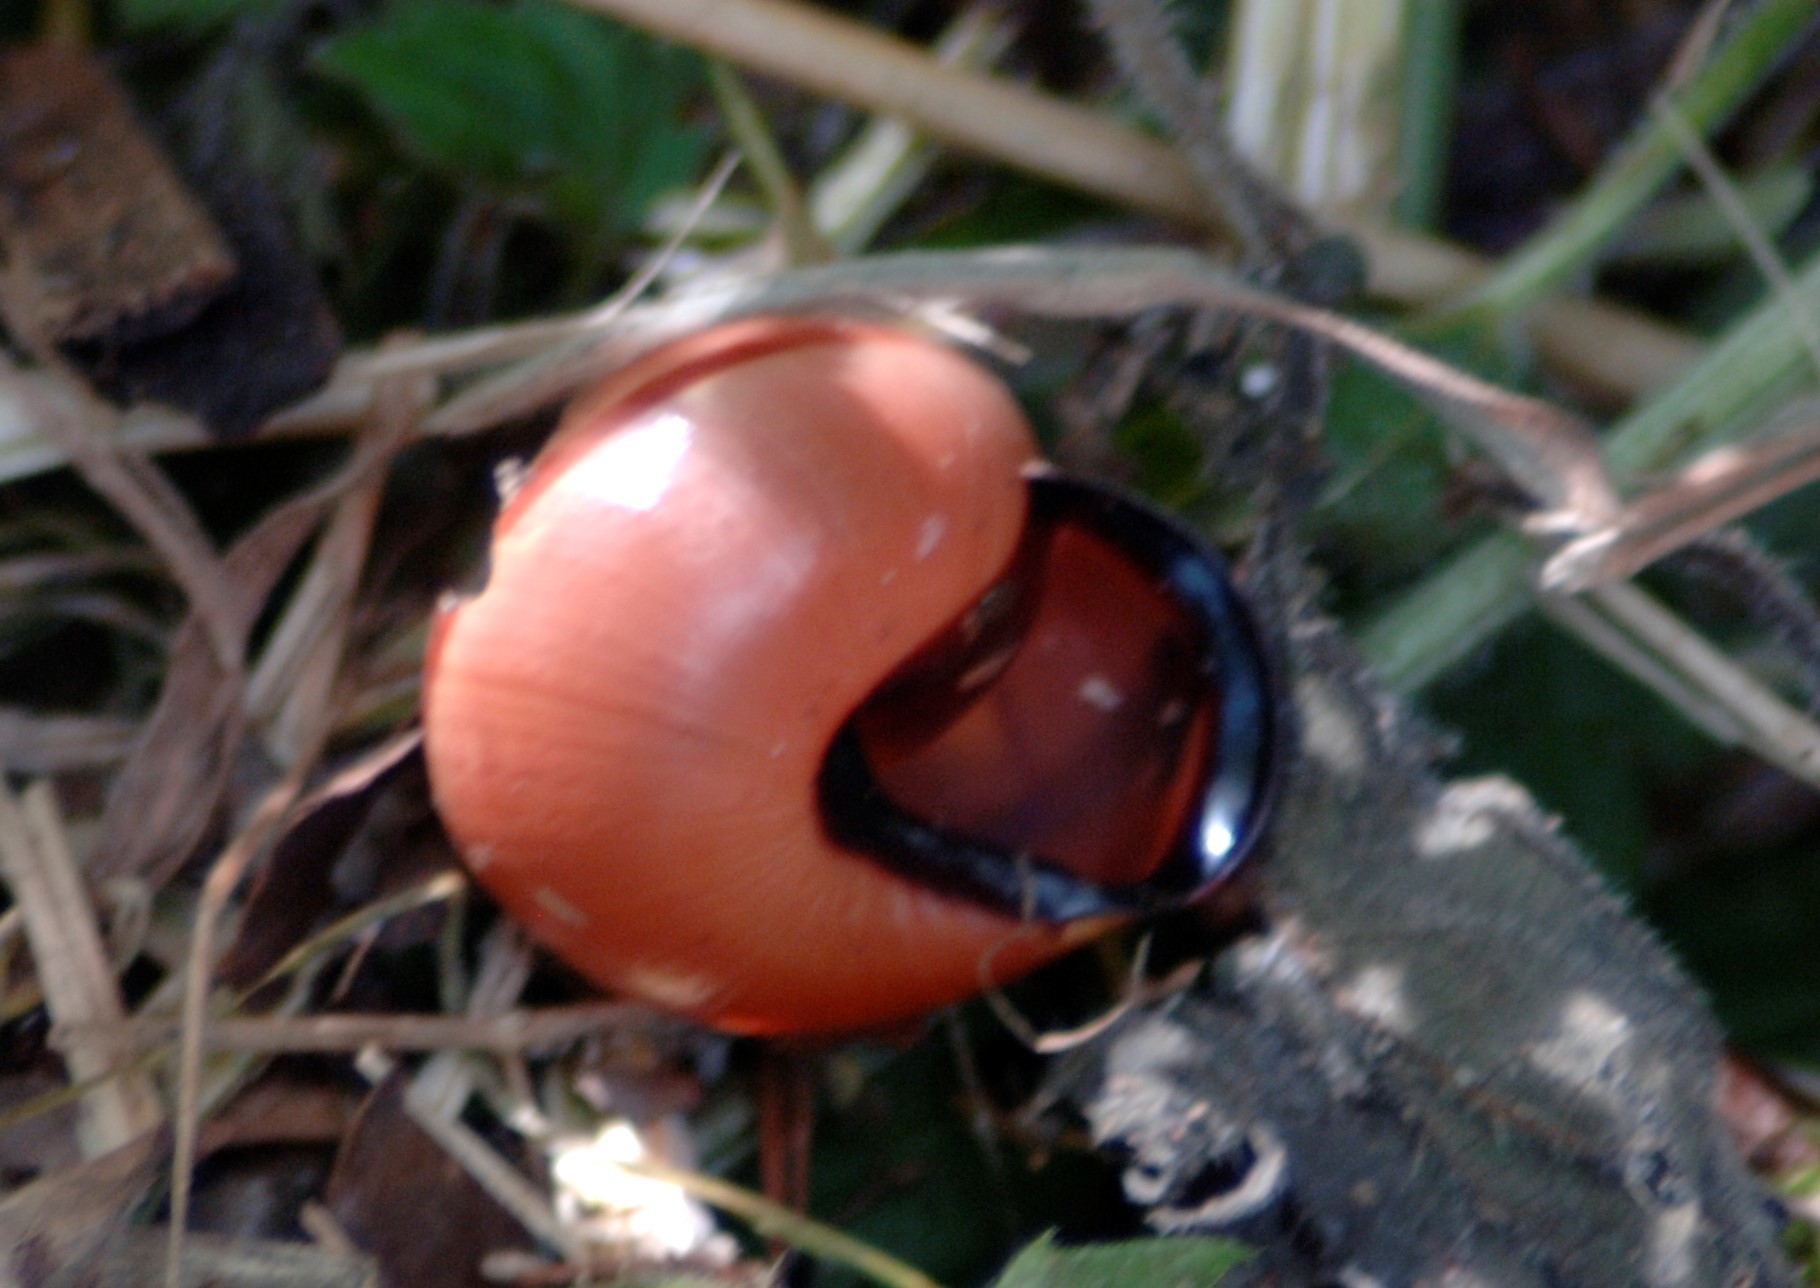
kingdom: Animalia
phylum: Mollusca
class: Gastropoda
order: Stylommatophora
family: Helicidae
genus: Cepaea
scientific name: Cepaea nemoralis
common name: Grovesnail
